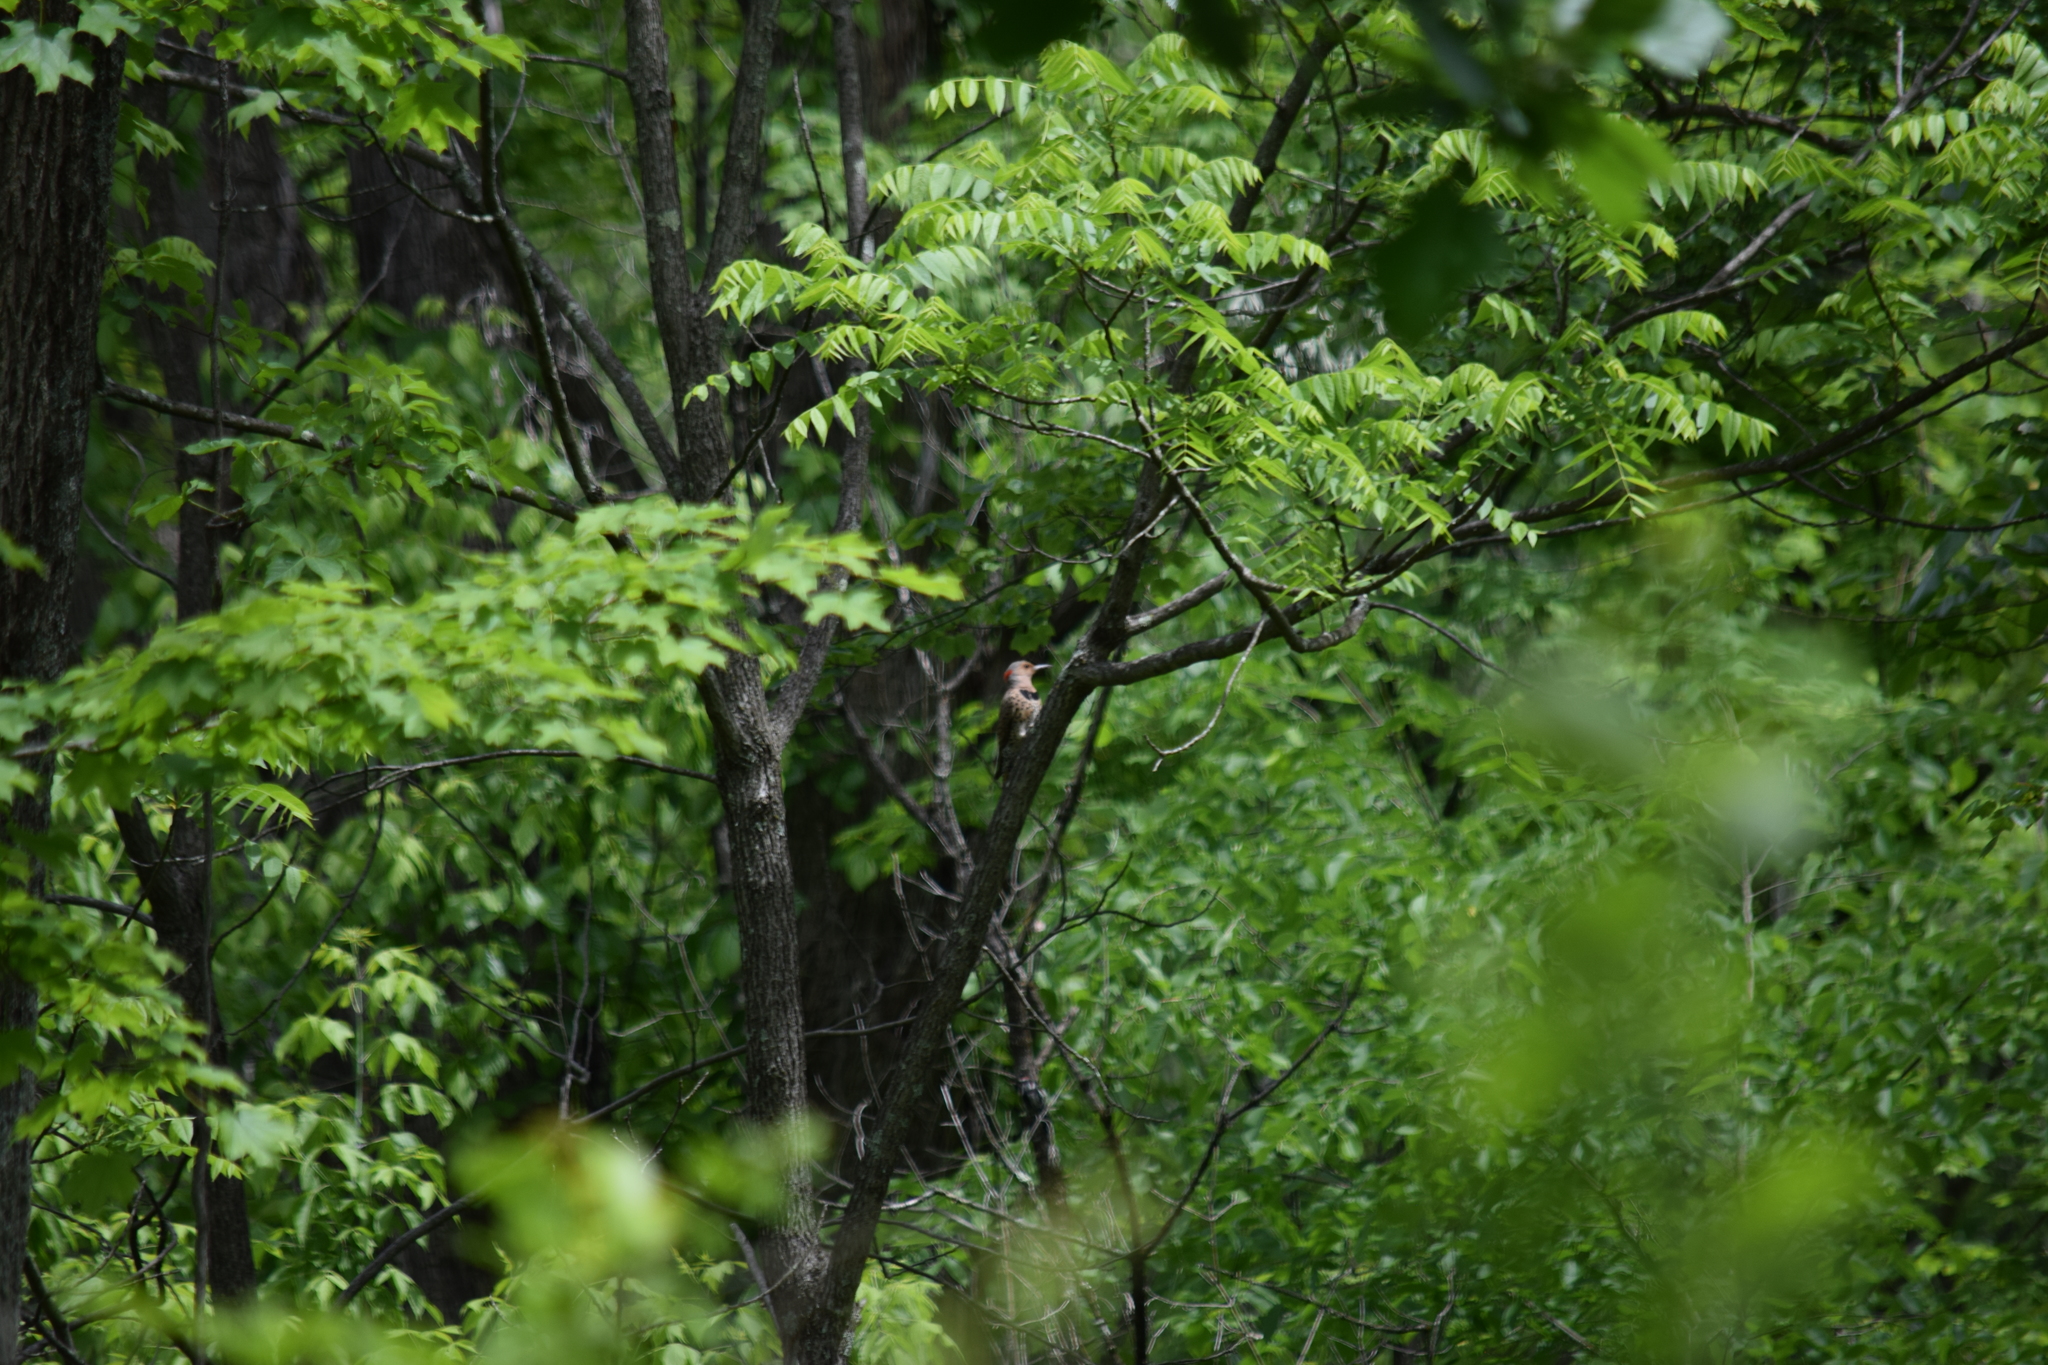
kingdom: Animalia
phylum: Chordata
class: Aves
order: Piciformes
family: Picidae
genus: Colaptes
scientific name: Colaptes auratus
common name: Northern flicker
